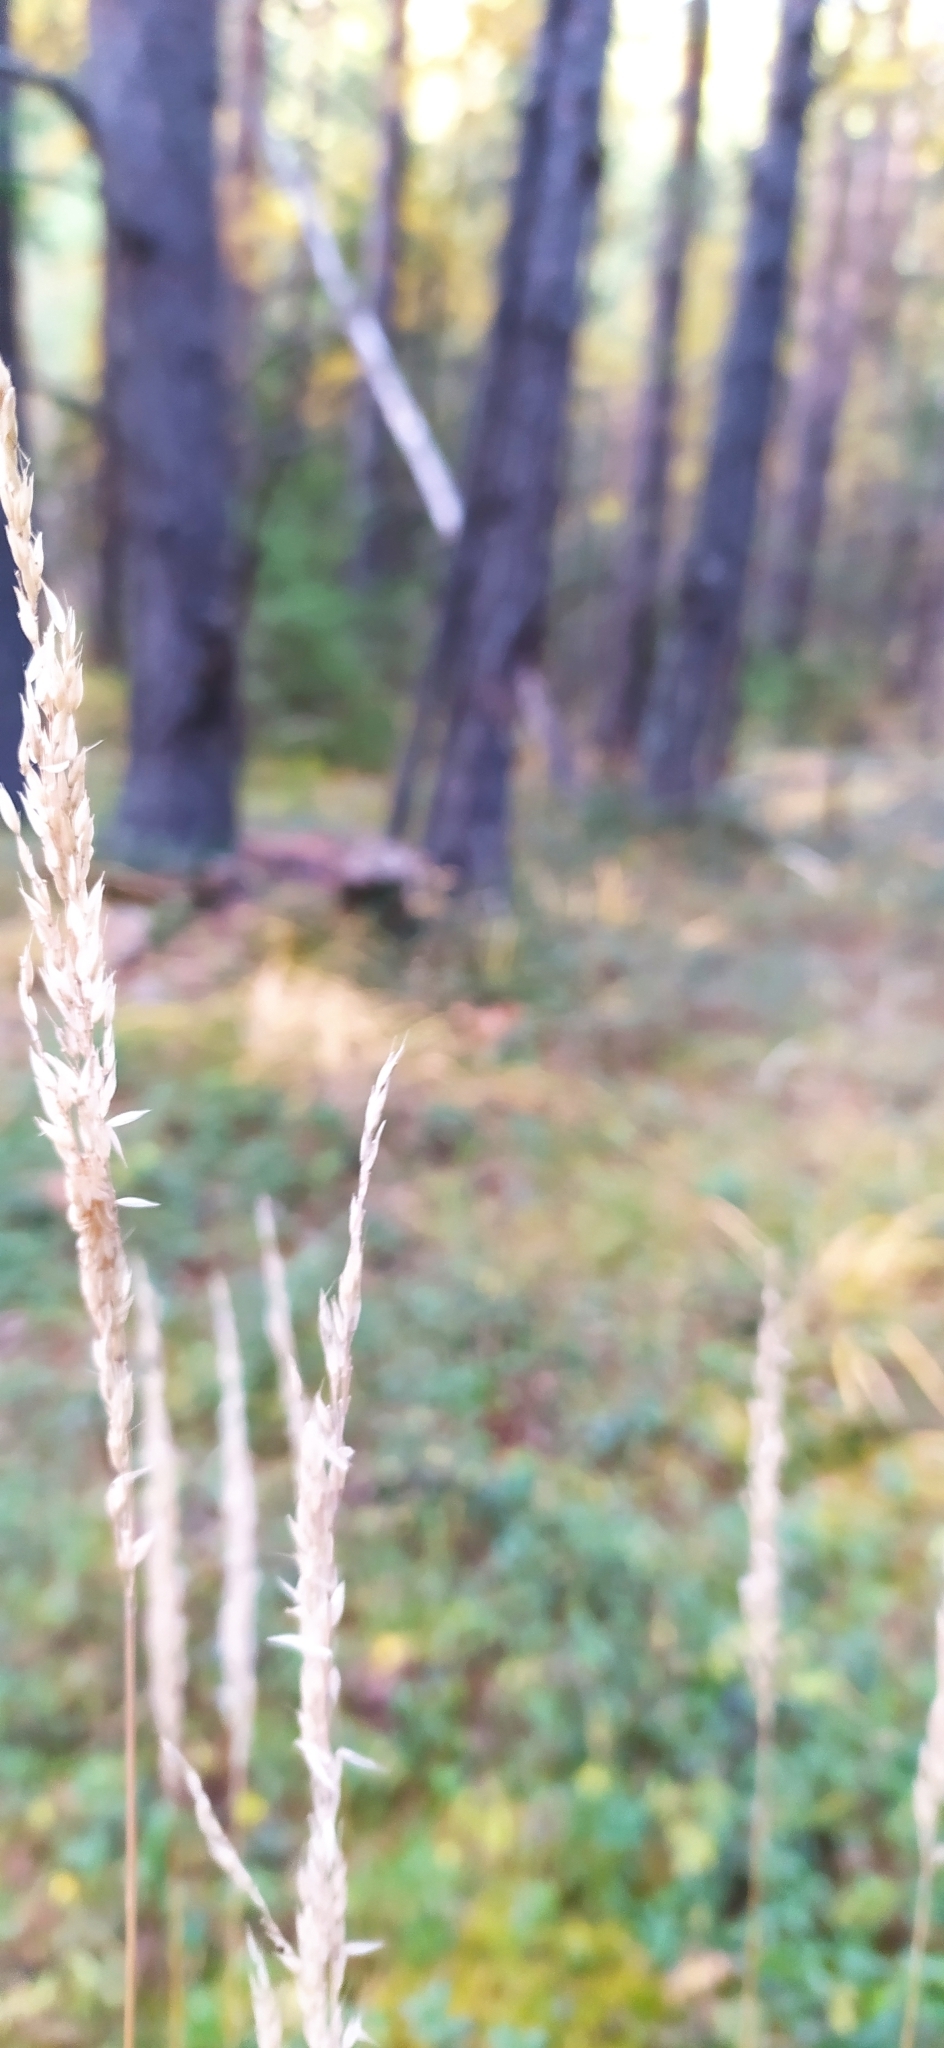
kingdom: Plantae
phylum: Tracheophyta
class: Liliopsida
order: Poales
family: Poaceae
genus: Calamagrostis
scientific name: Calamagrostis arundinacea
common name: Metskastik
